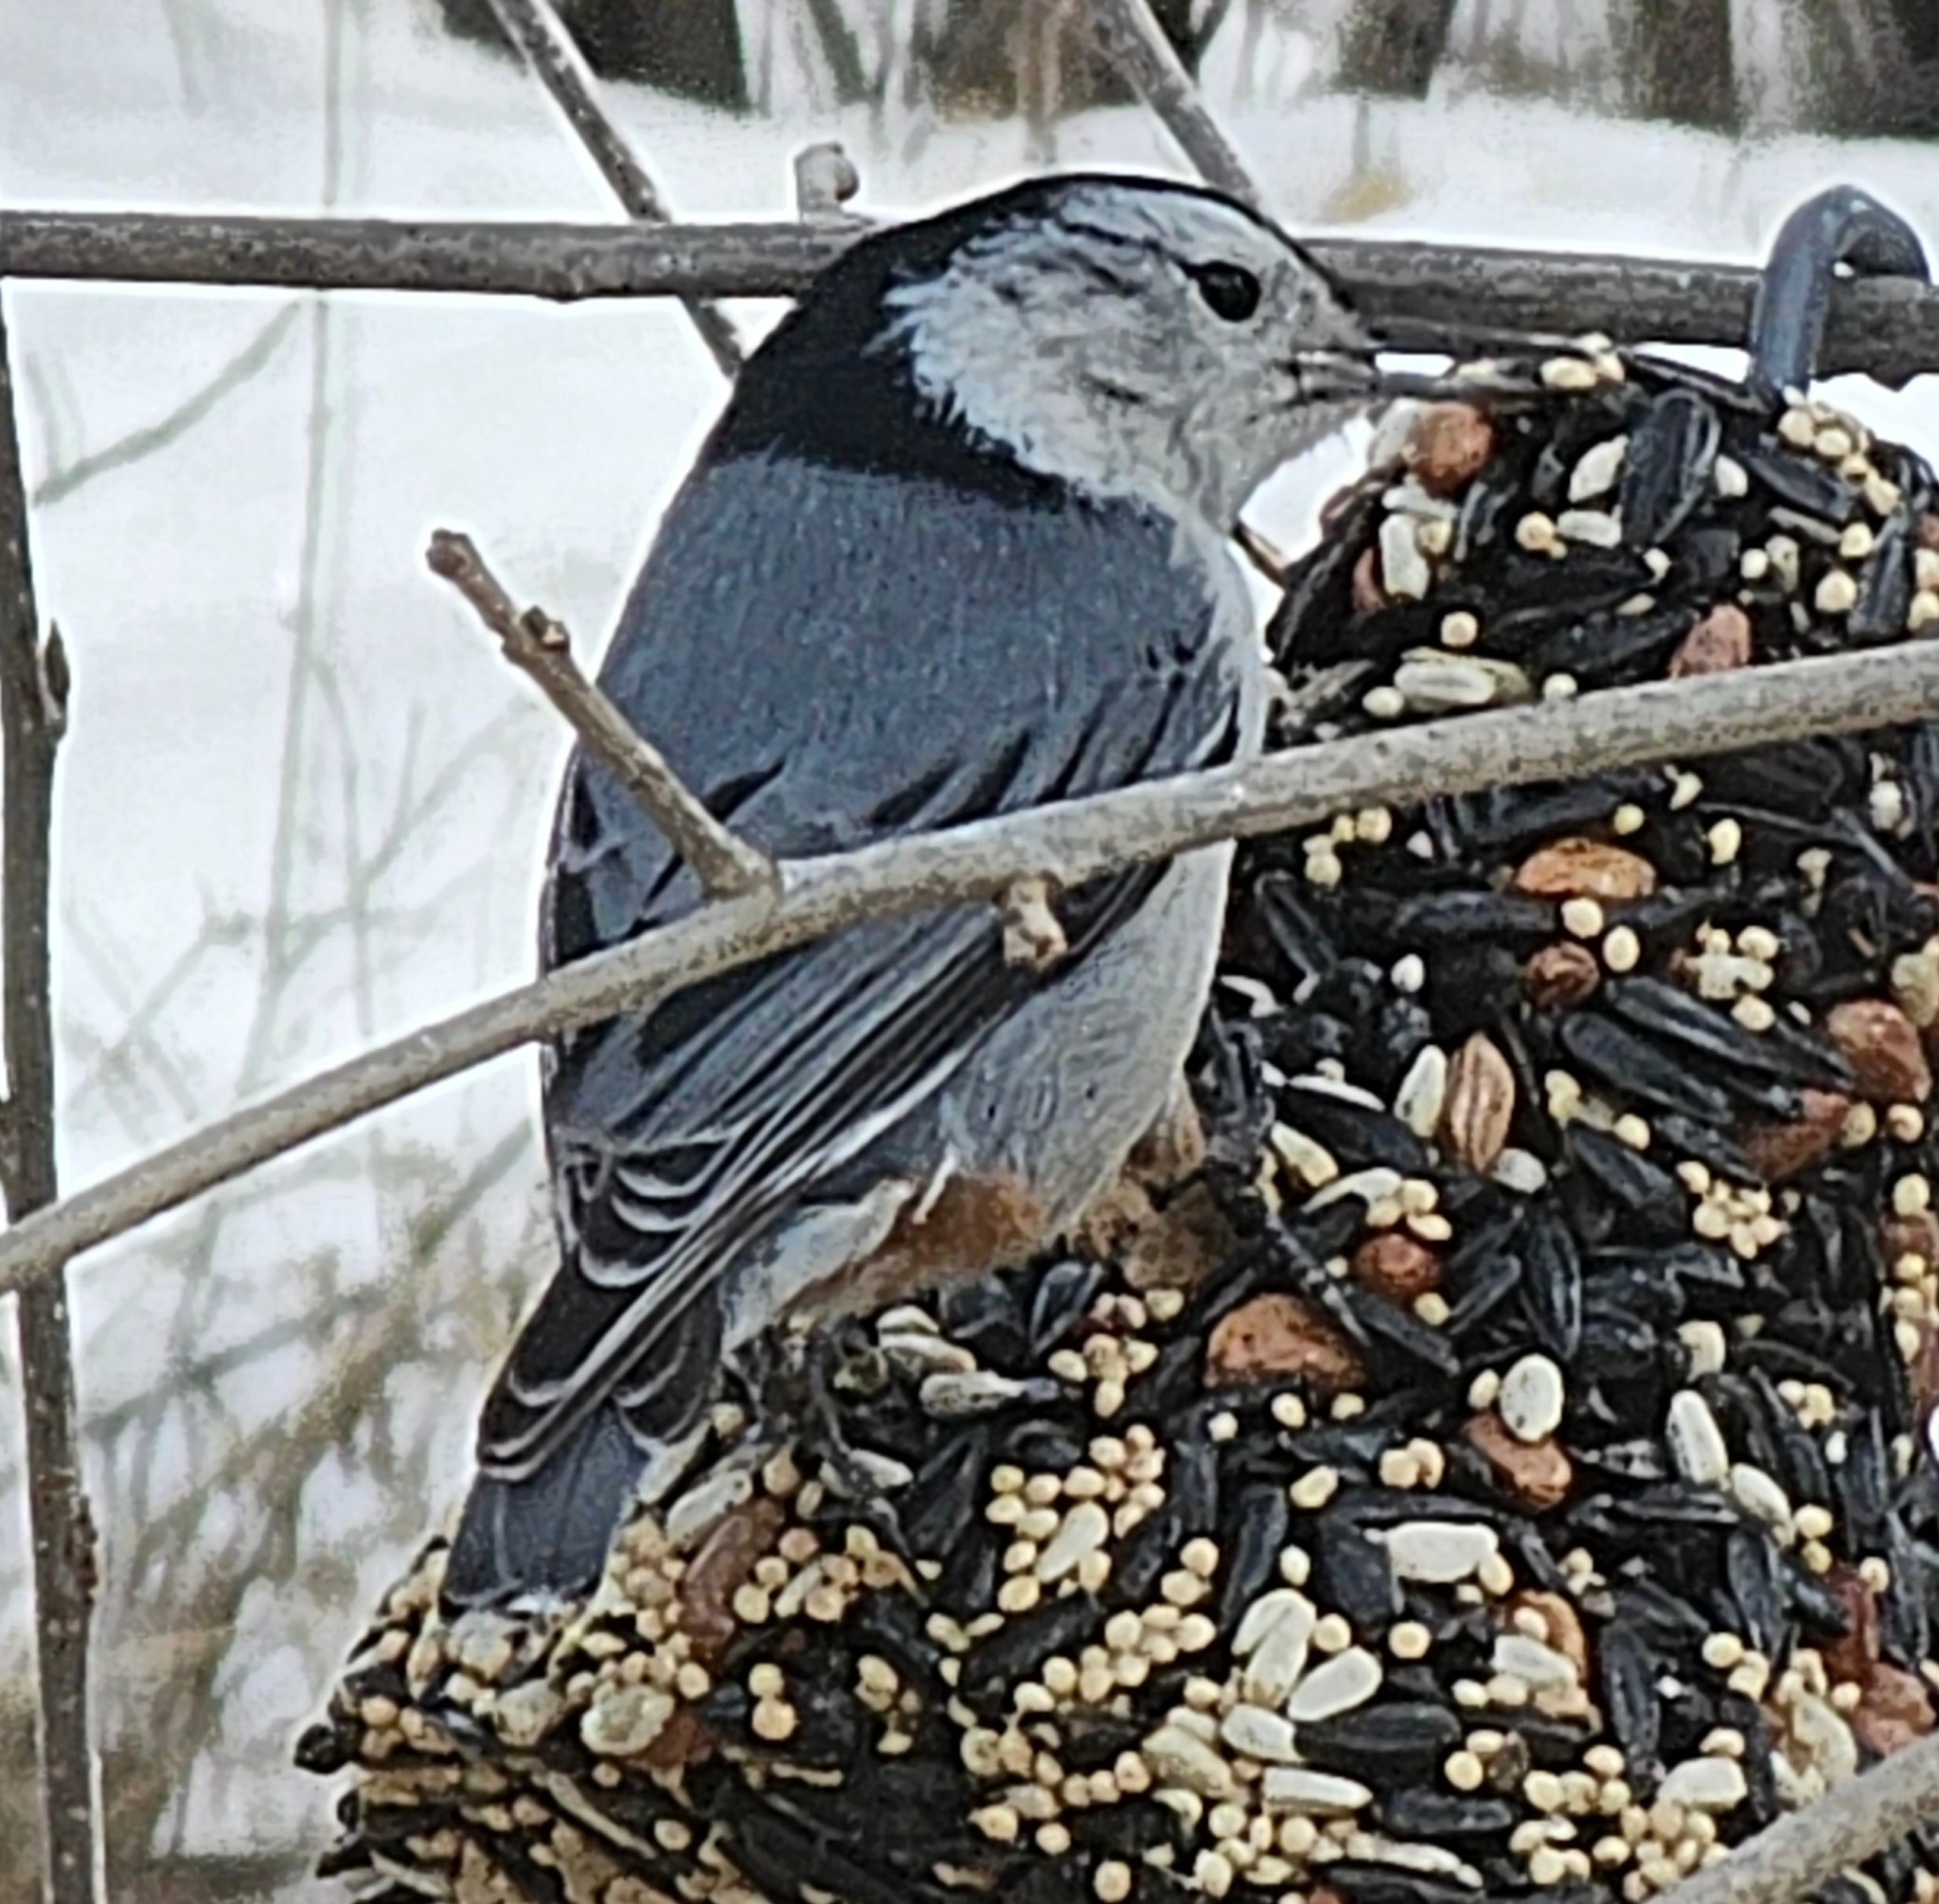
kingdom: Animalia
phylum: Chordata
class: Aves
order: Passeriformes
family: Sittidae
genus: Sitta
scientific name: Sitta carolinensis
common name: White-breasted nuthatch
